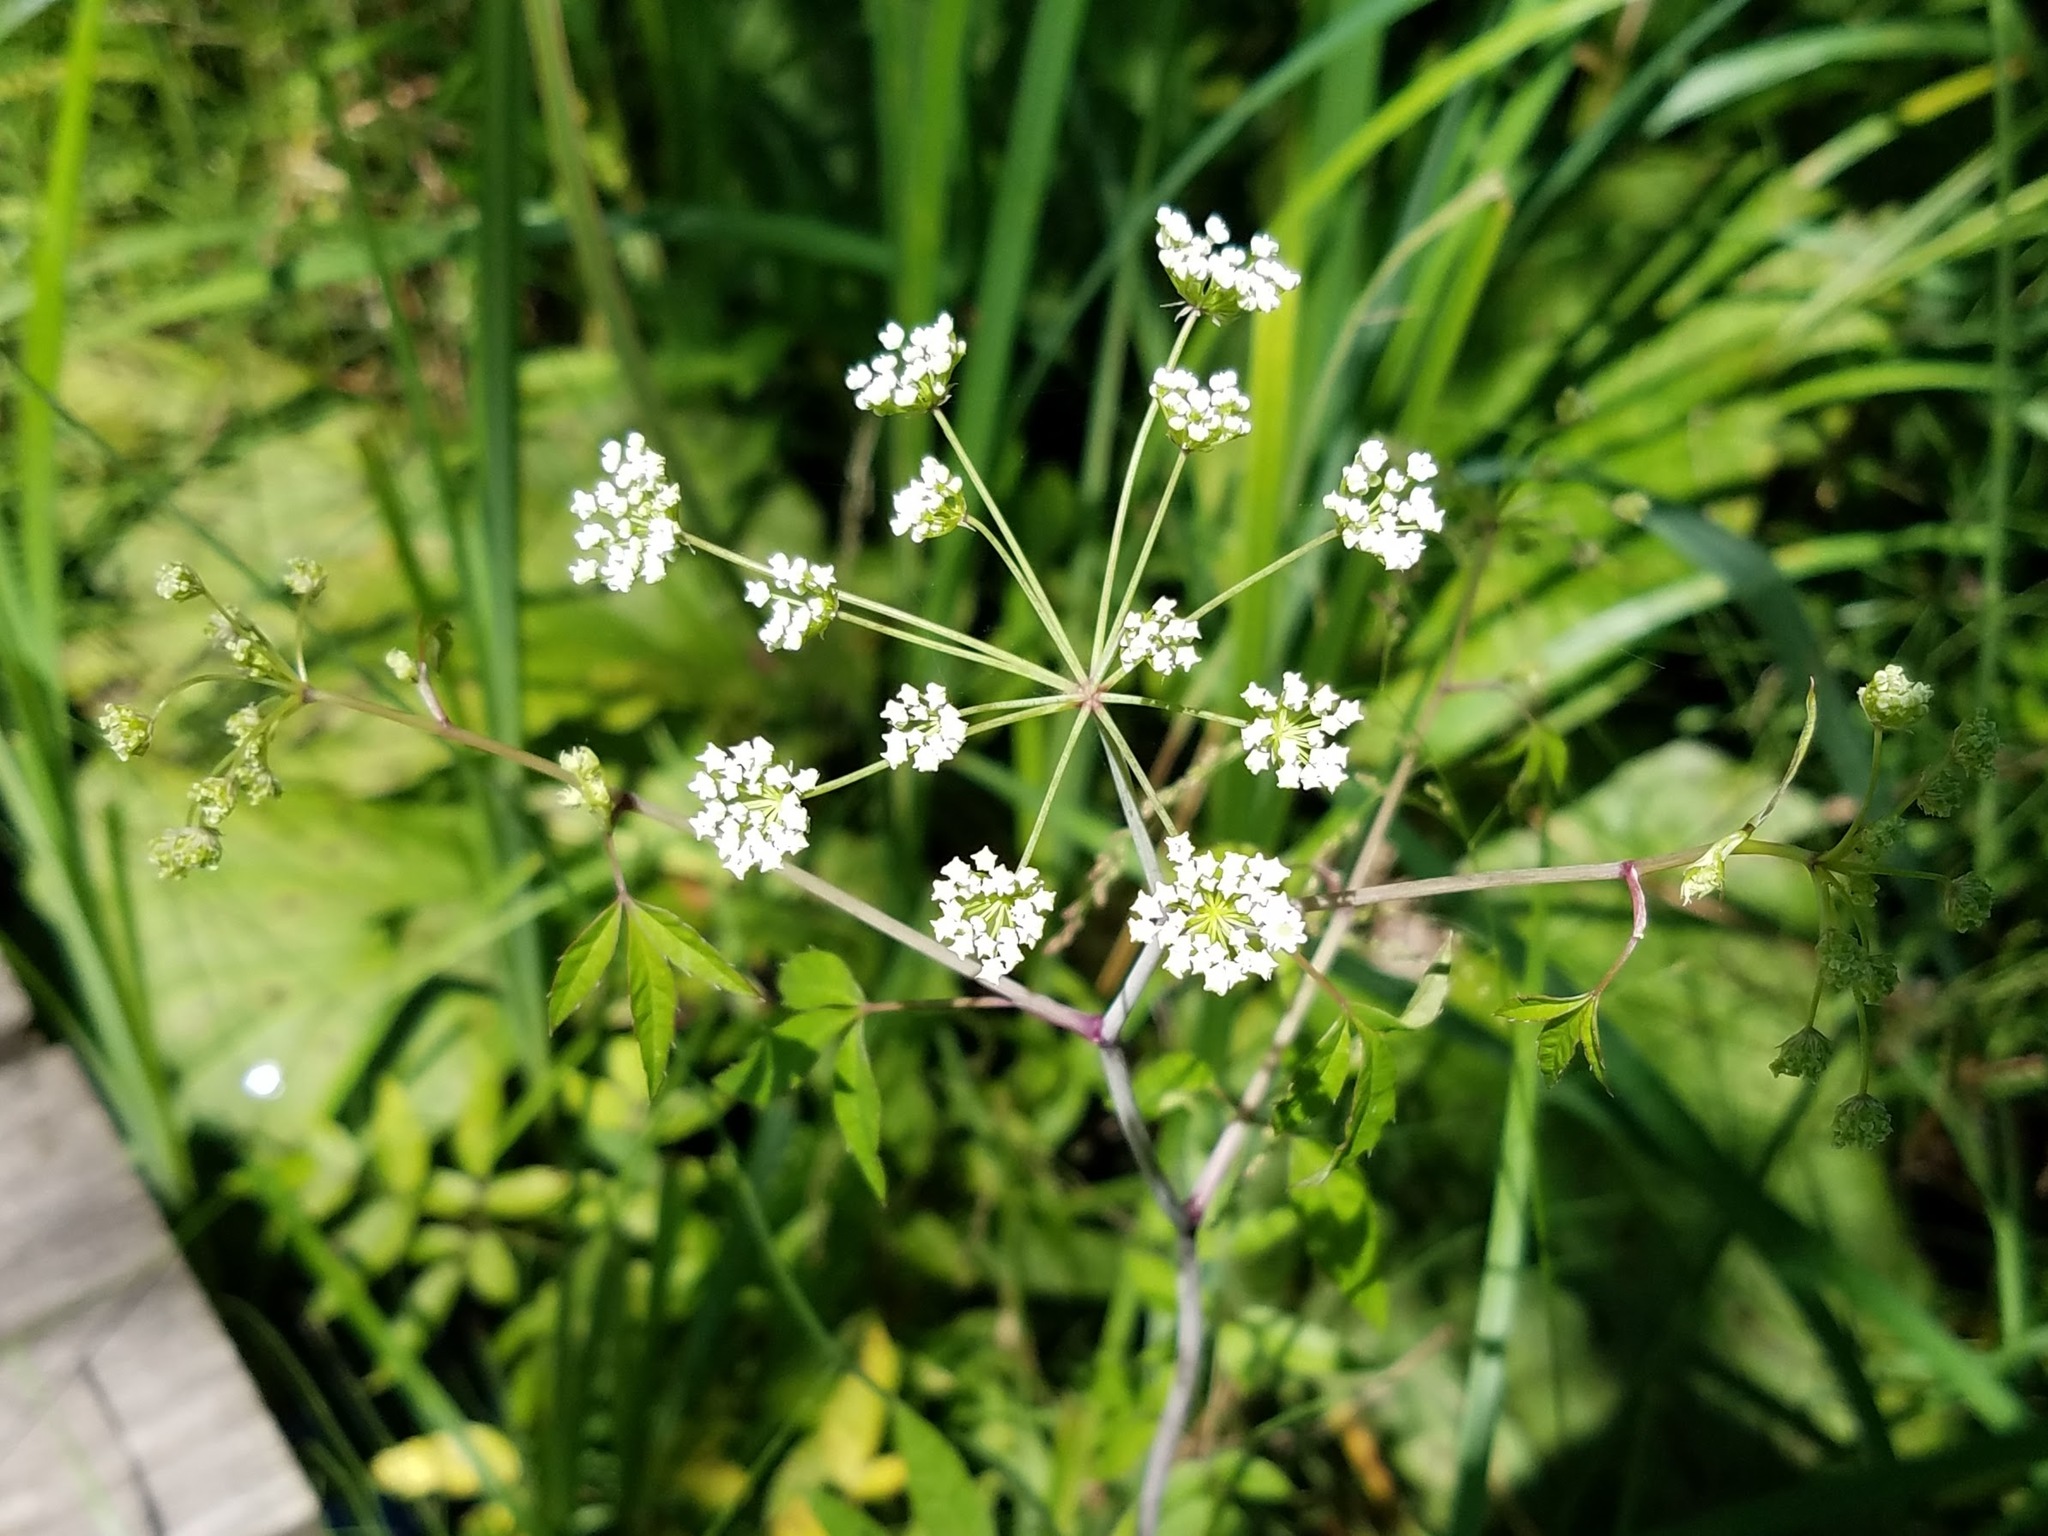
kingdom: Plantae
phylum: Tracheophyta
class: Magnoliopsida
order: Apiales
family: Apiaceae
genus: Cicuta
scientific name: Cicuta maculata
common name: Spotted cowbane
